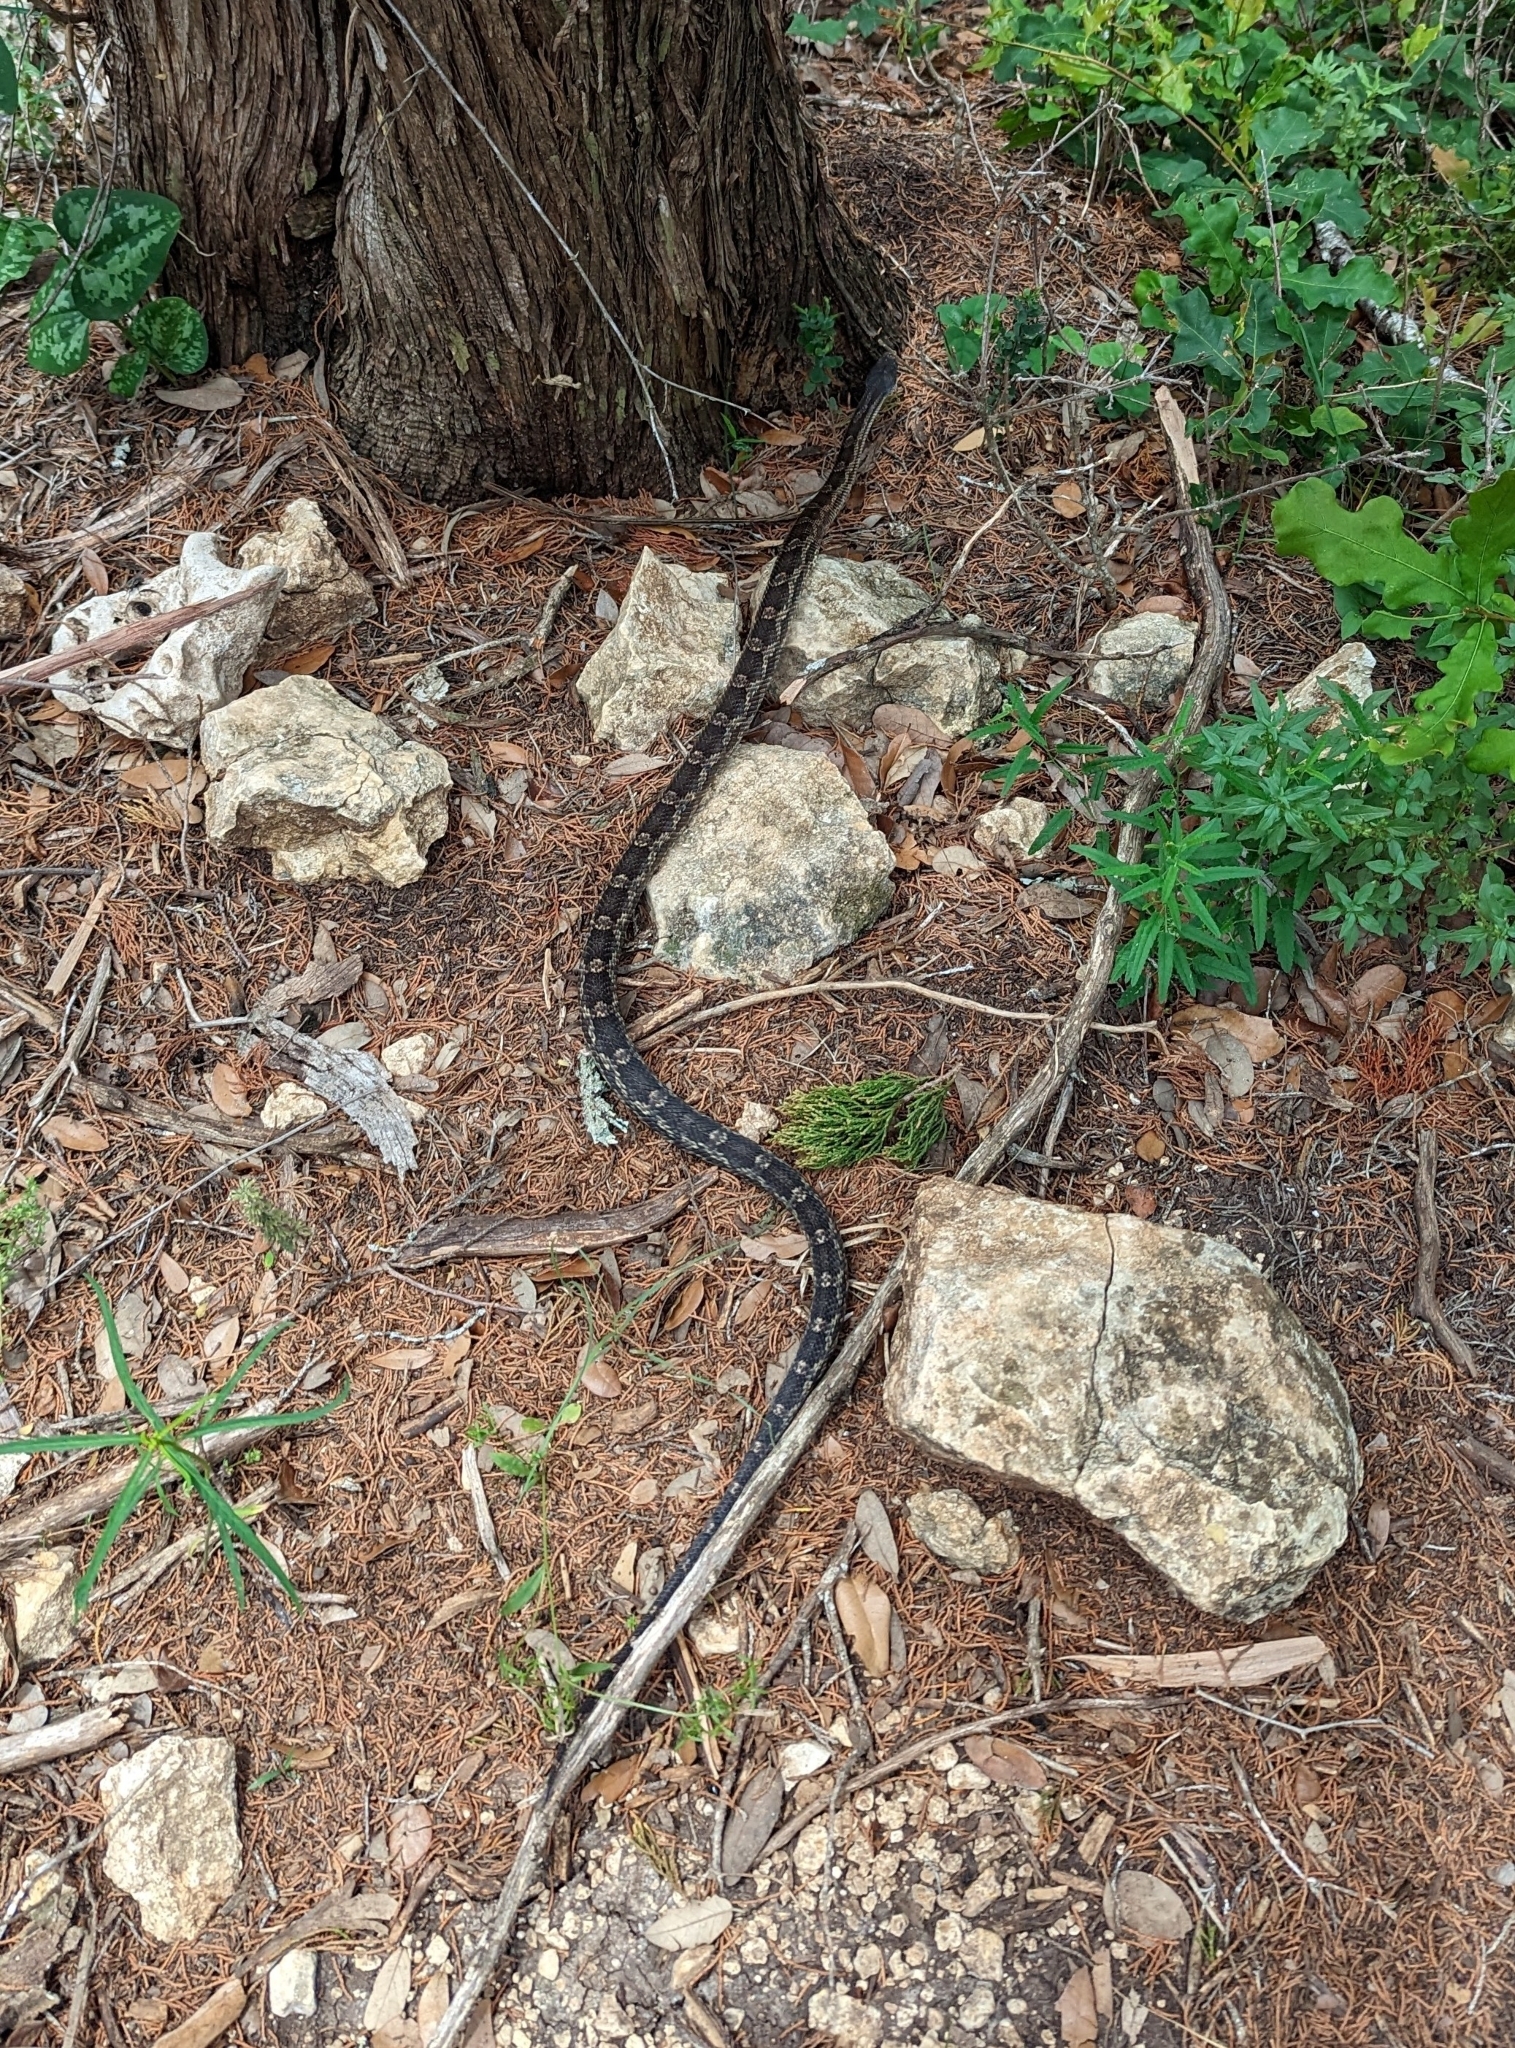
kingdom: Animalia
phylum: Chordata
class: Squamata
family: Colubridae
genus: Pantherophis
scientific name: Pantherophis obsoletus
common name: Black rat snake
